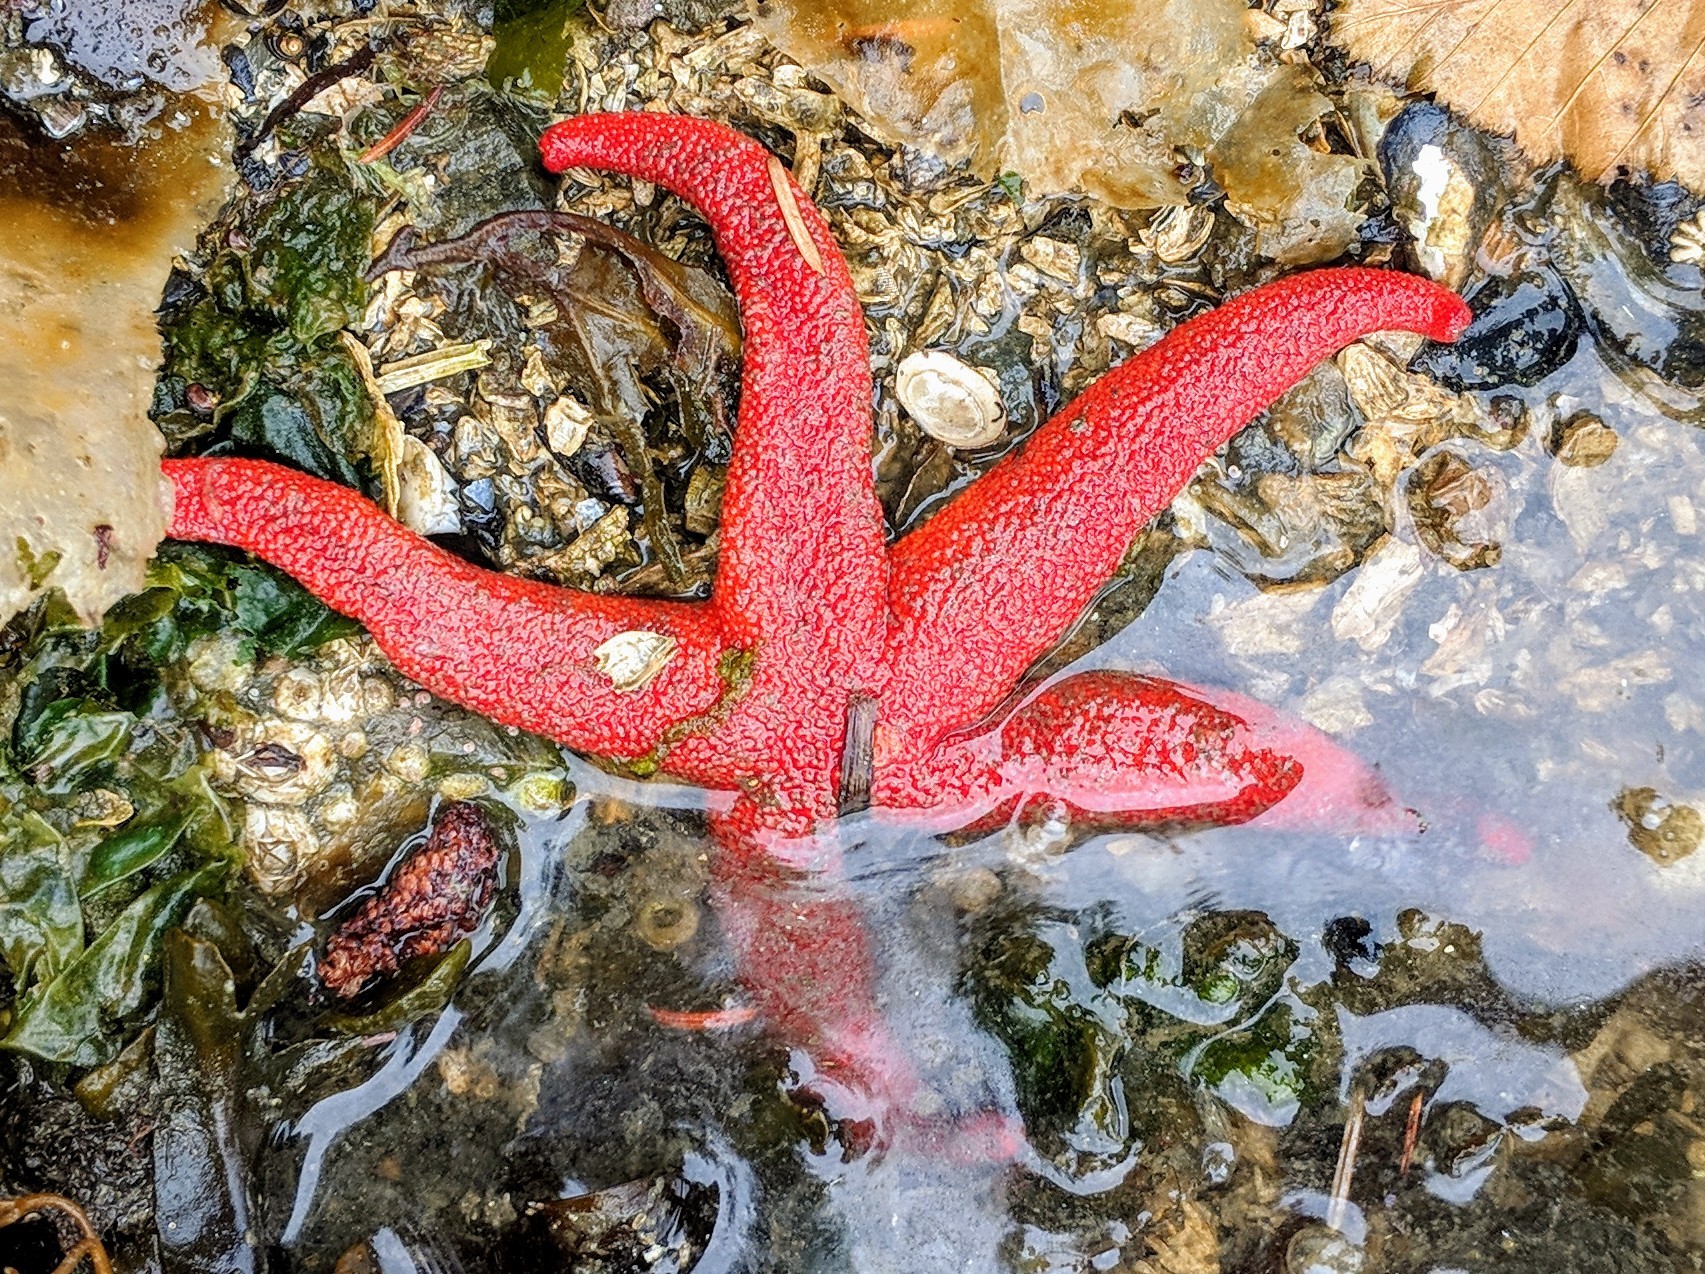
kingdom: Animalia
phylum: Echinodermata
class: Asteroidea
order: Spinulosida
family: Echinasteridae
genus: Henricia
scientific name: Henricia leviuscula
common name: Pacific blood star
